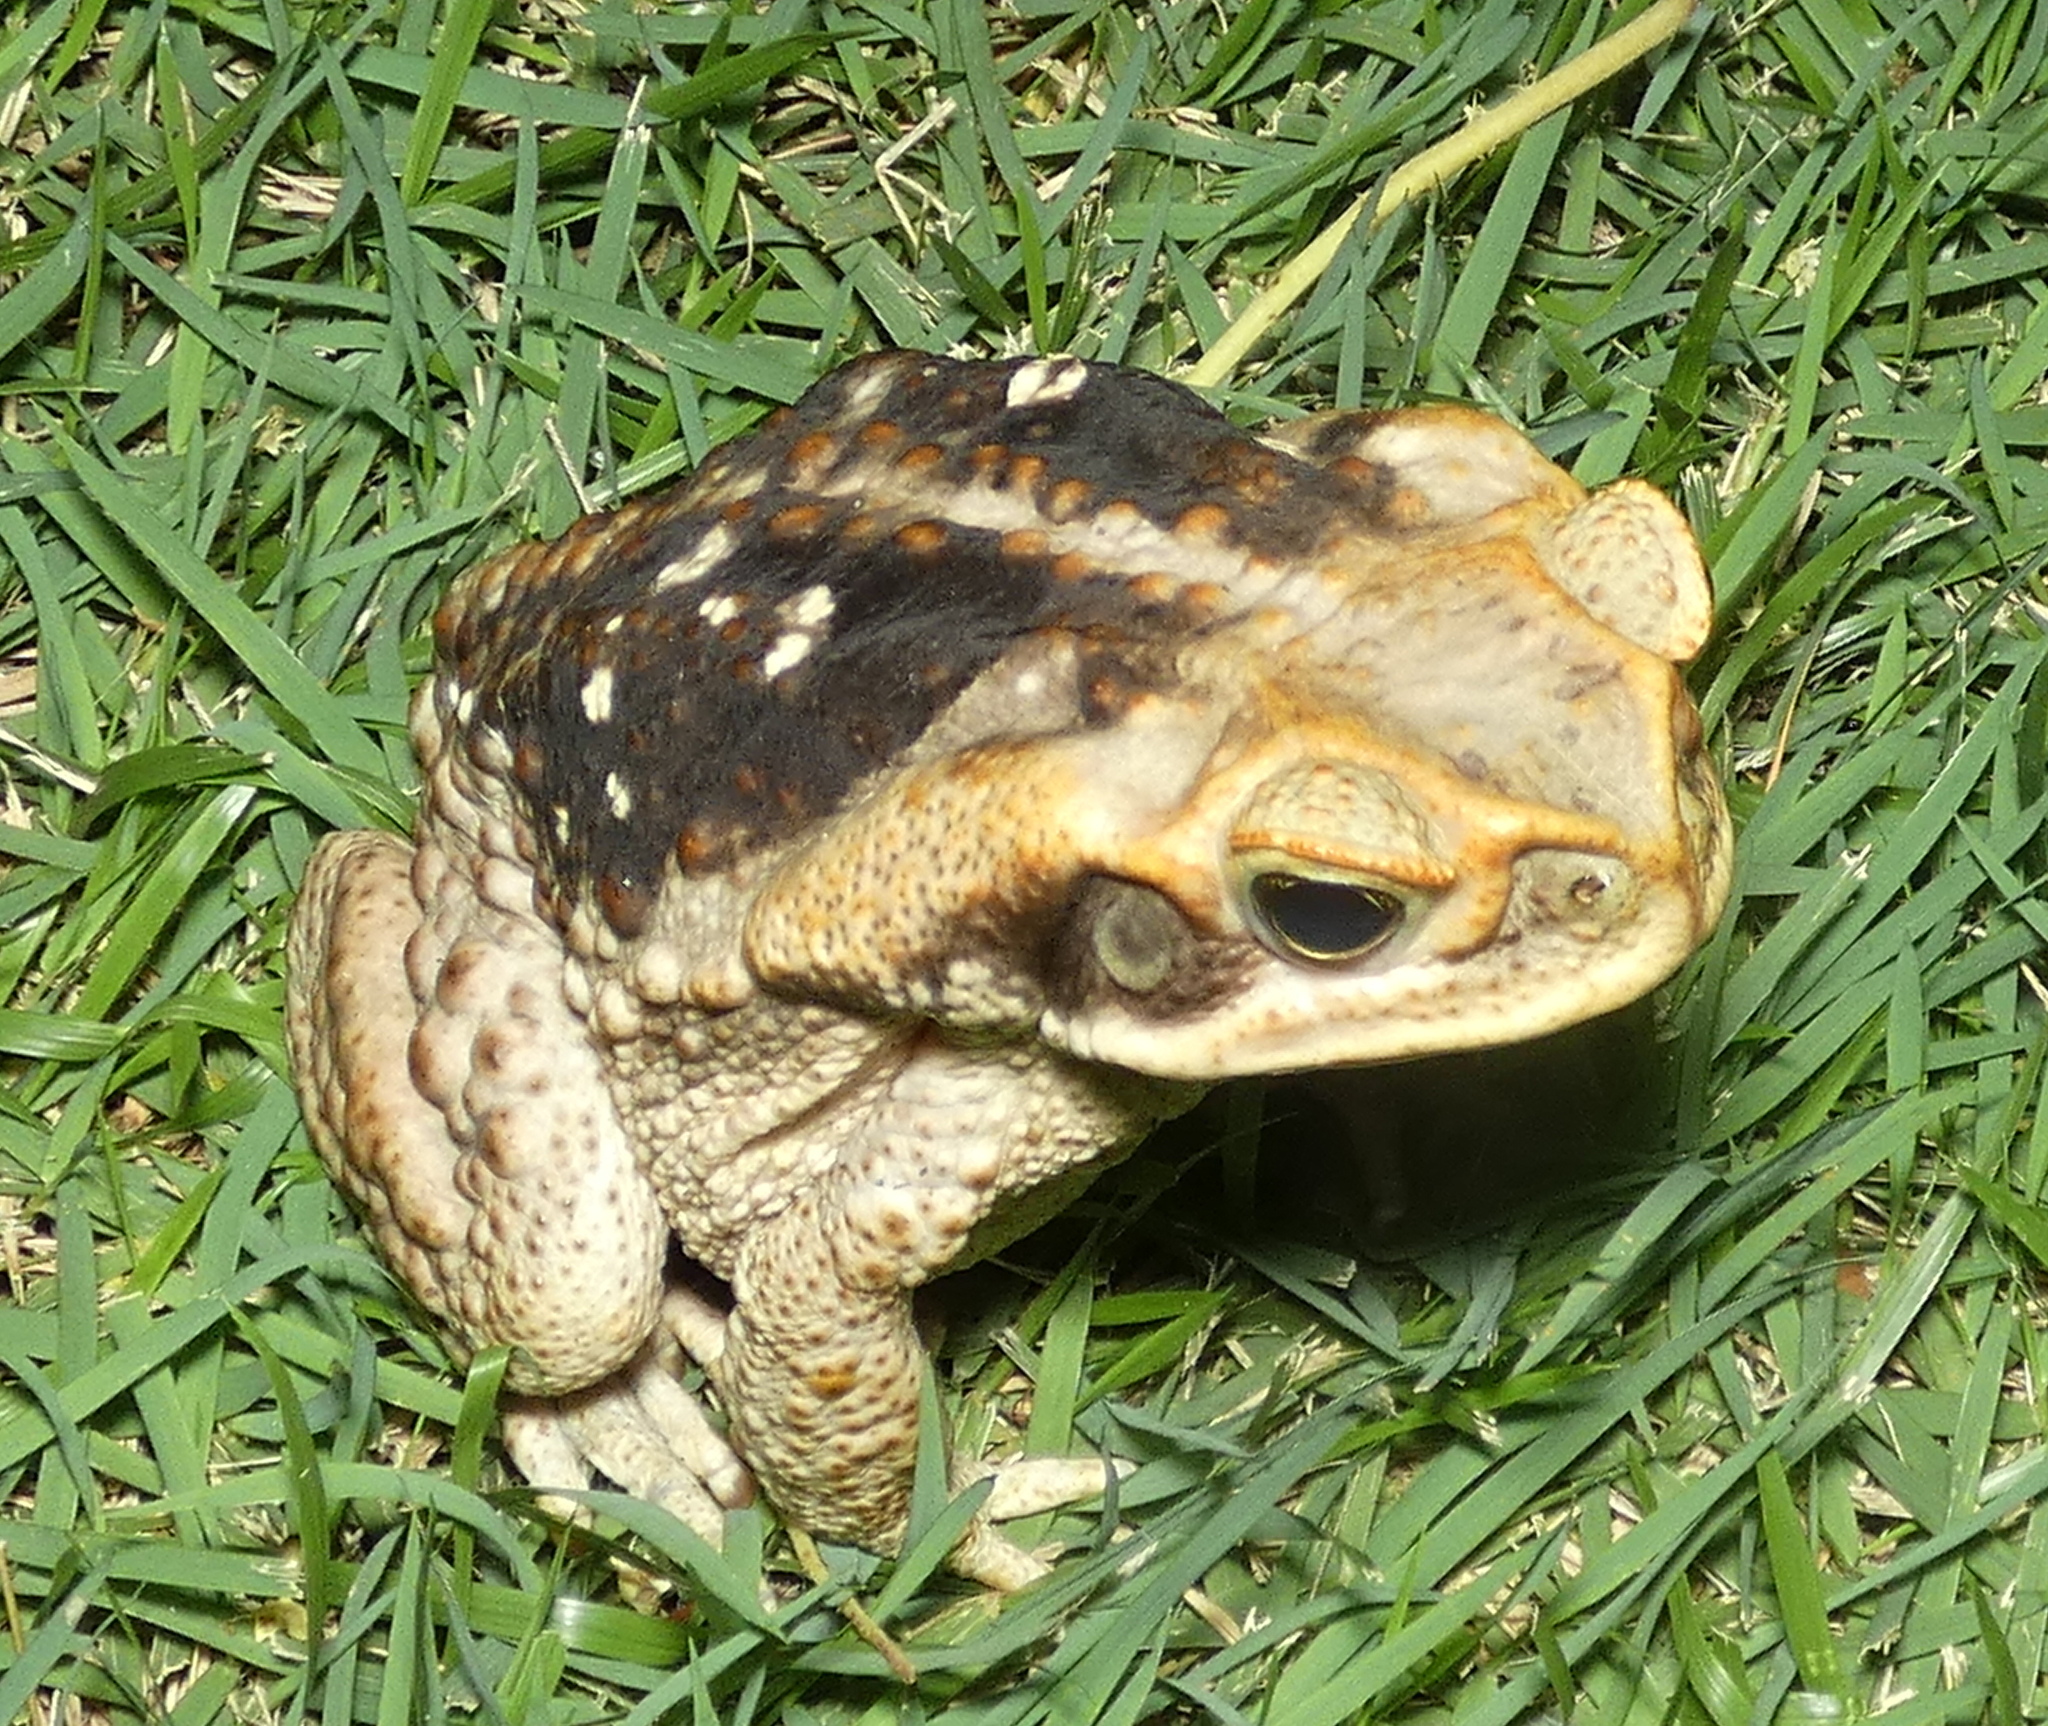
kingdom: Animalia
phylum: Chordata
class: Amphibia
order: Anura
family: Bufonidae
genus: Rhinella
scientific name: Rhinella diptycha
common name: Cope's toad
